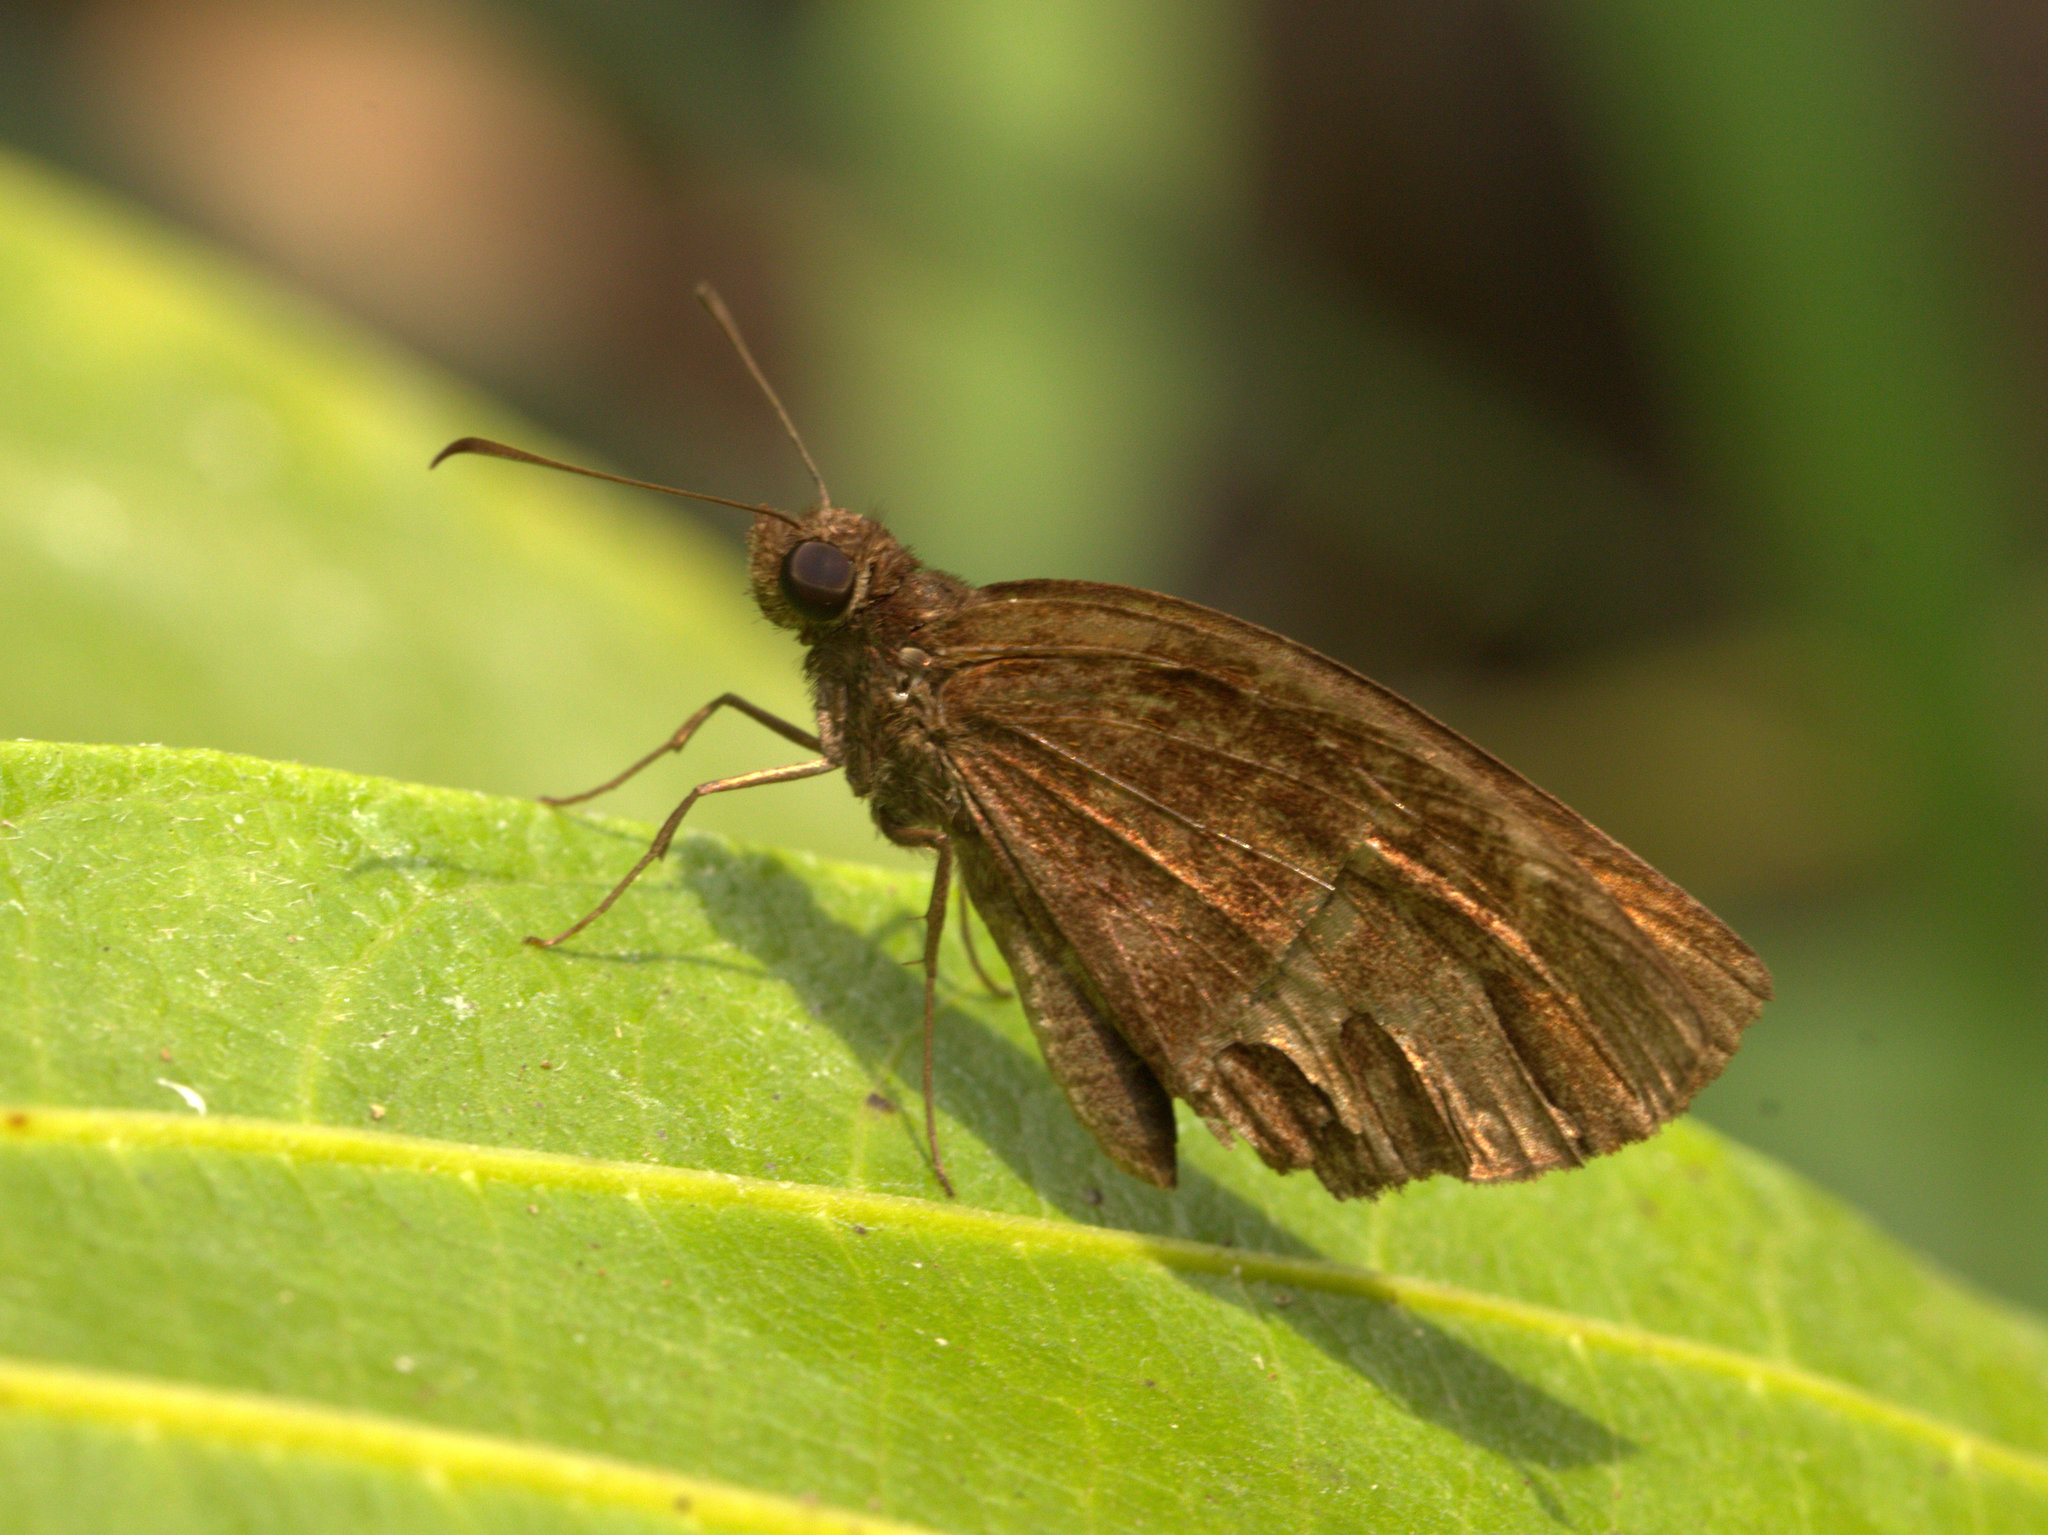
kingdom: Animalia
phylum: Arthropoda
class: Insecta
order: Lepidoptera
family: Hesperiidae
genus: Psolos
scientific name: Psolos fuligo
